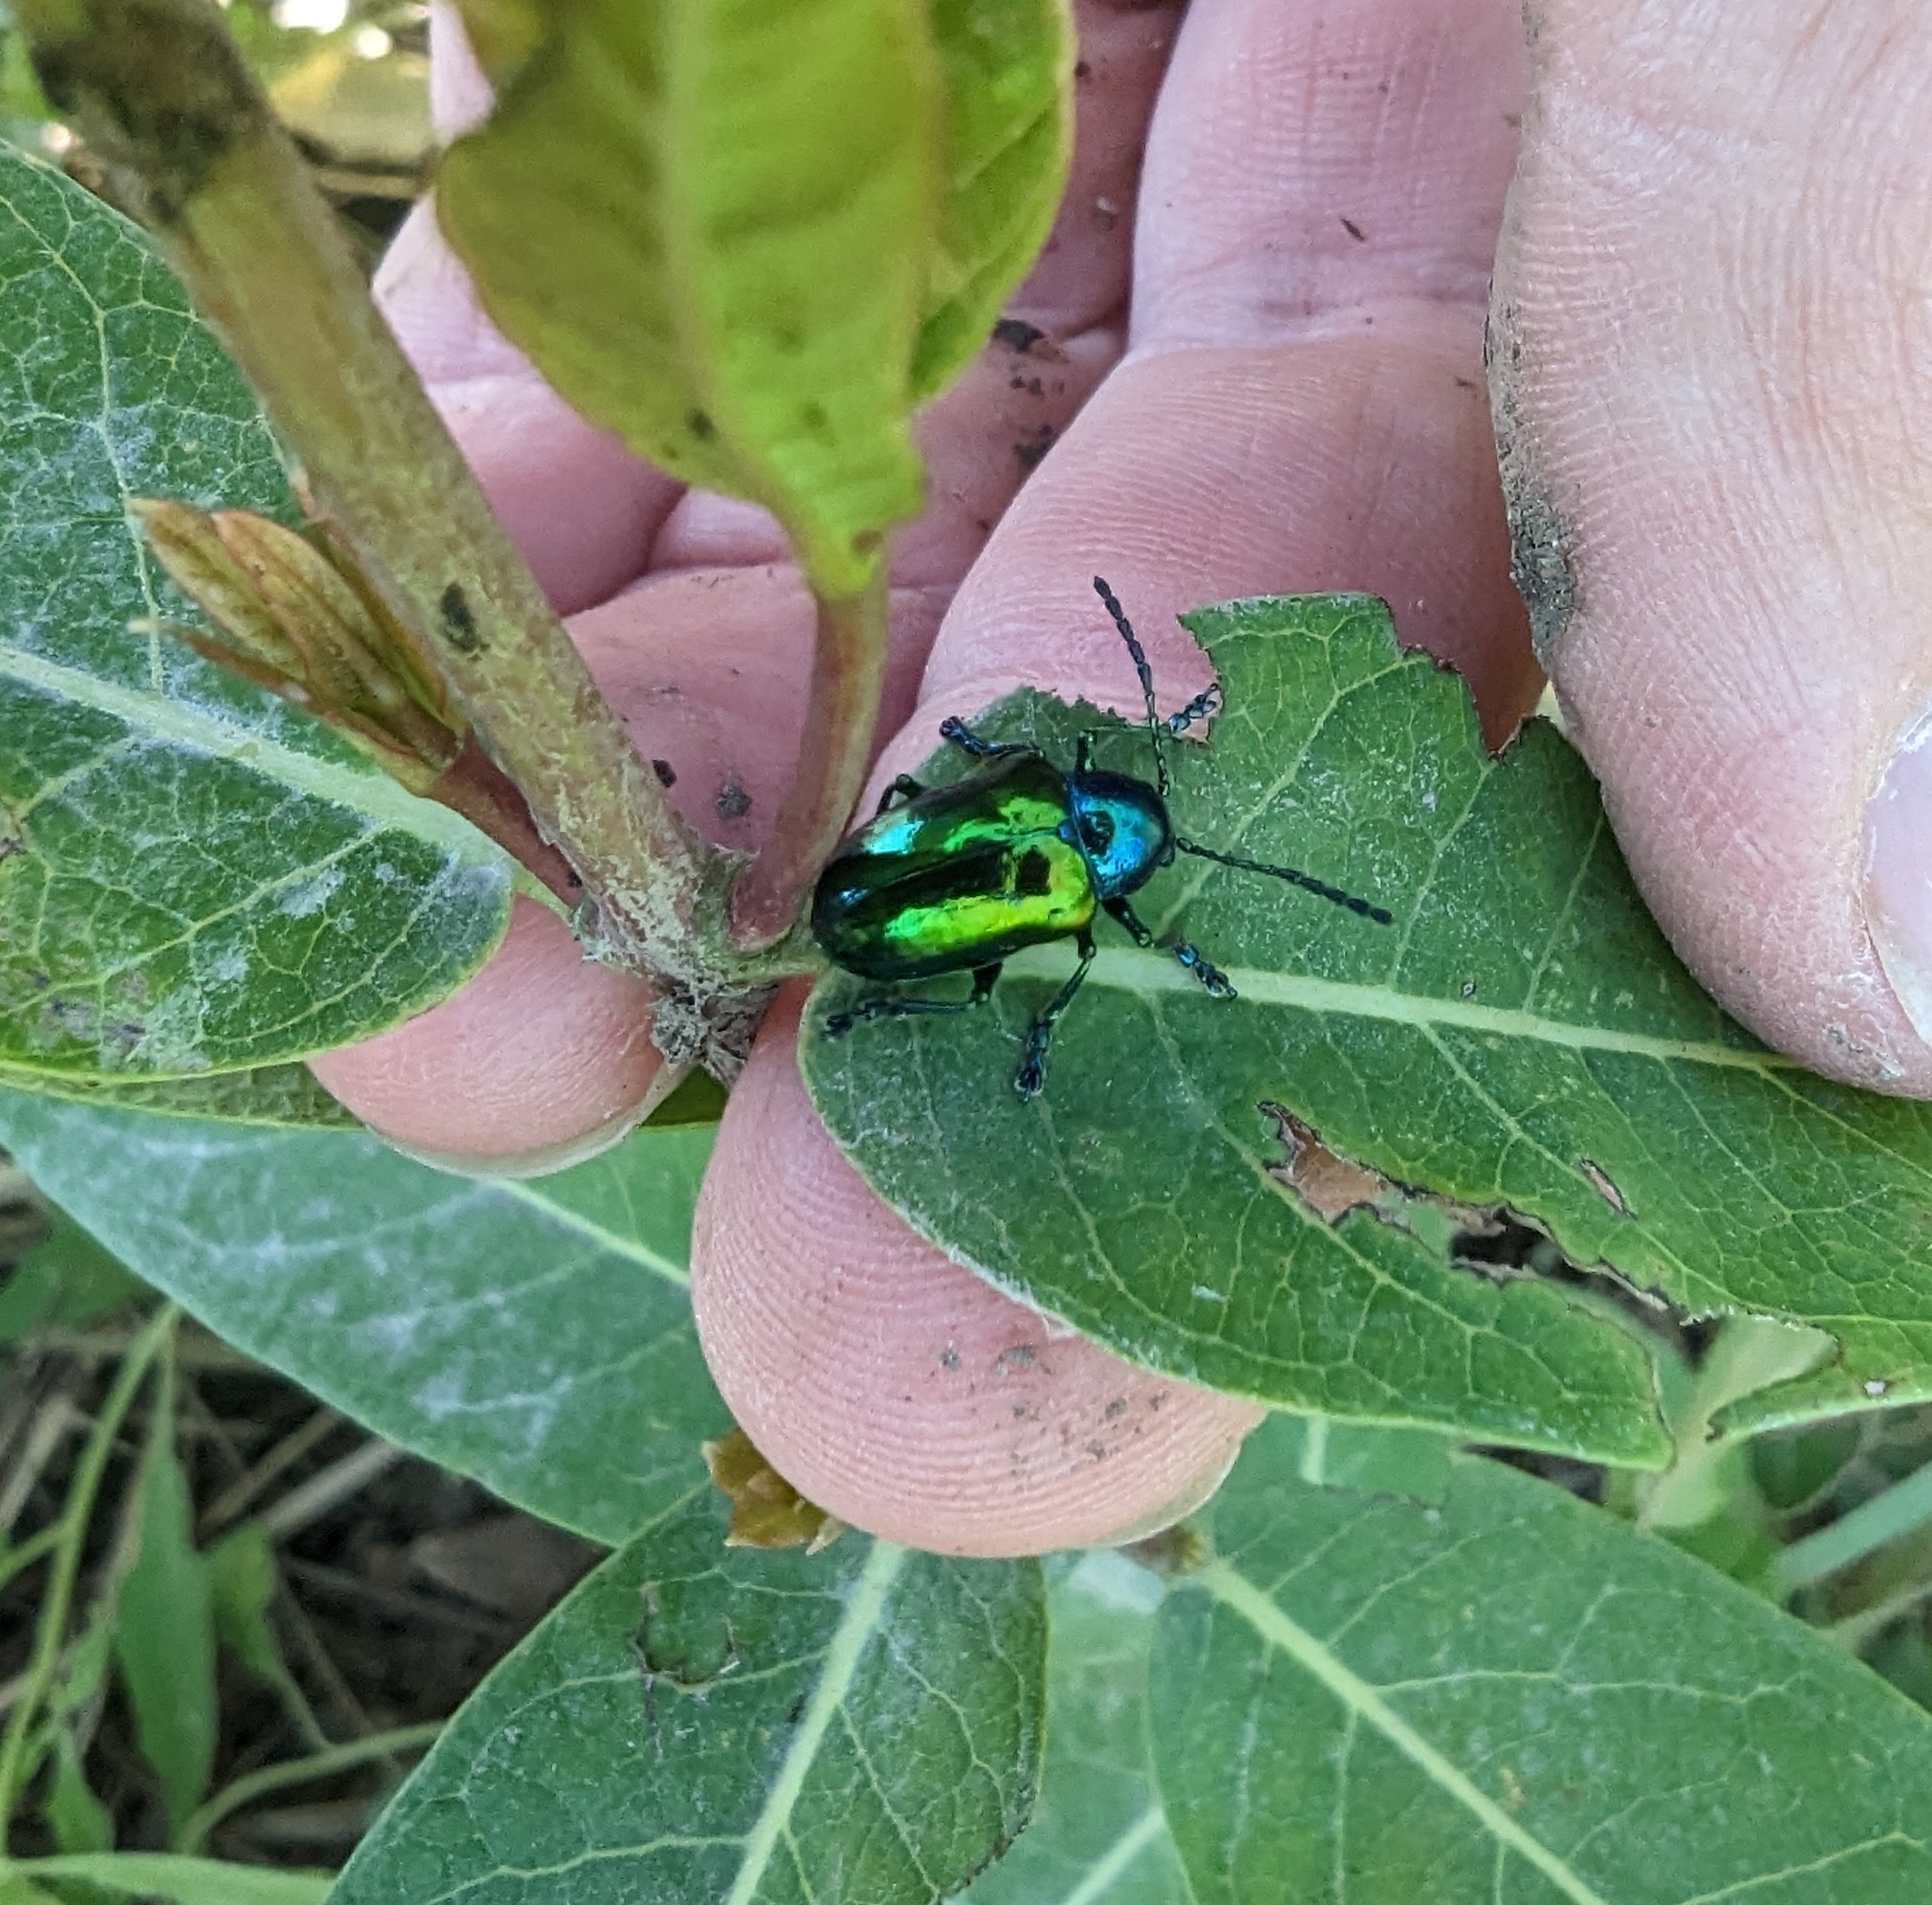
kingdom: Animalia
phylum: Arthropoda
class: Insecta
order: Coleoptera
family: Chrysomelidae
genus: Chrysochus
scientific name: Chrysochus auratus
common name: Dogbane leaf beetle
